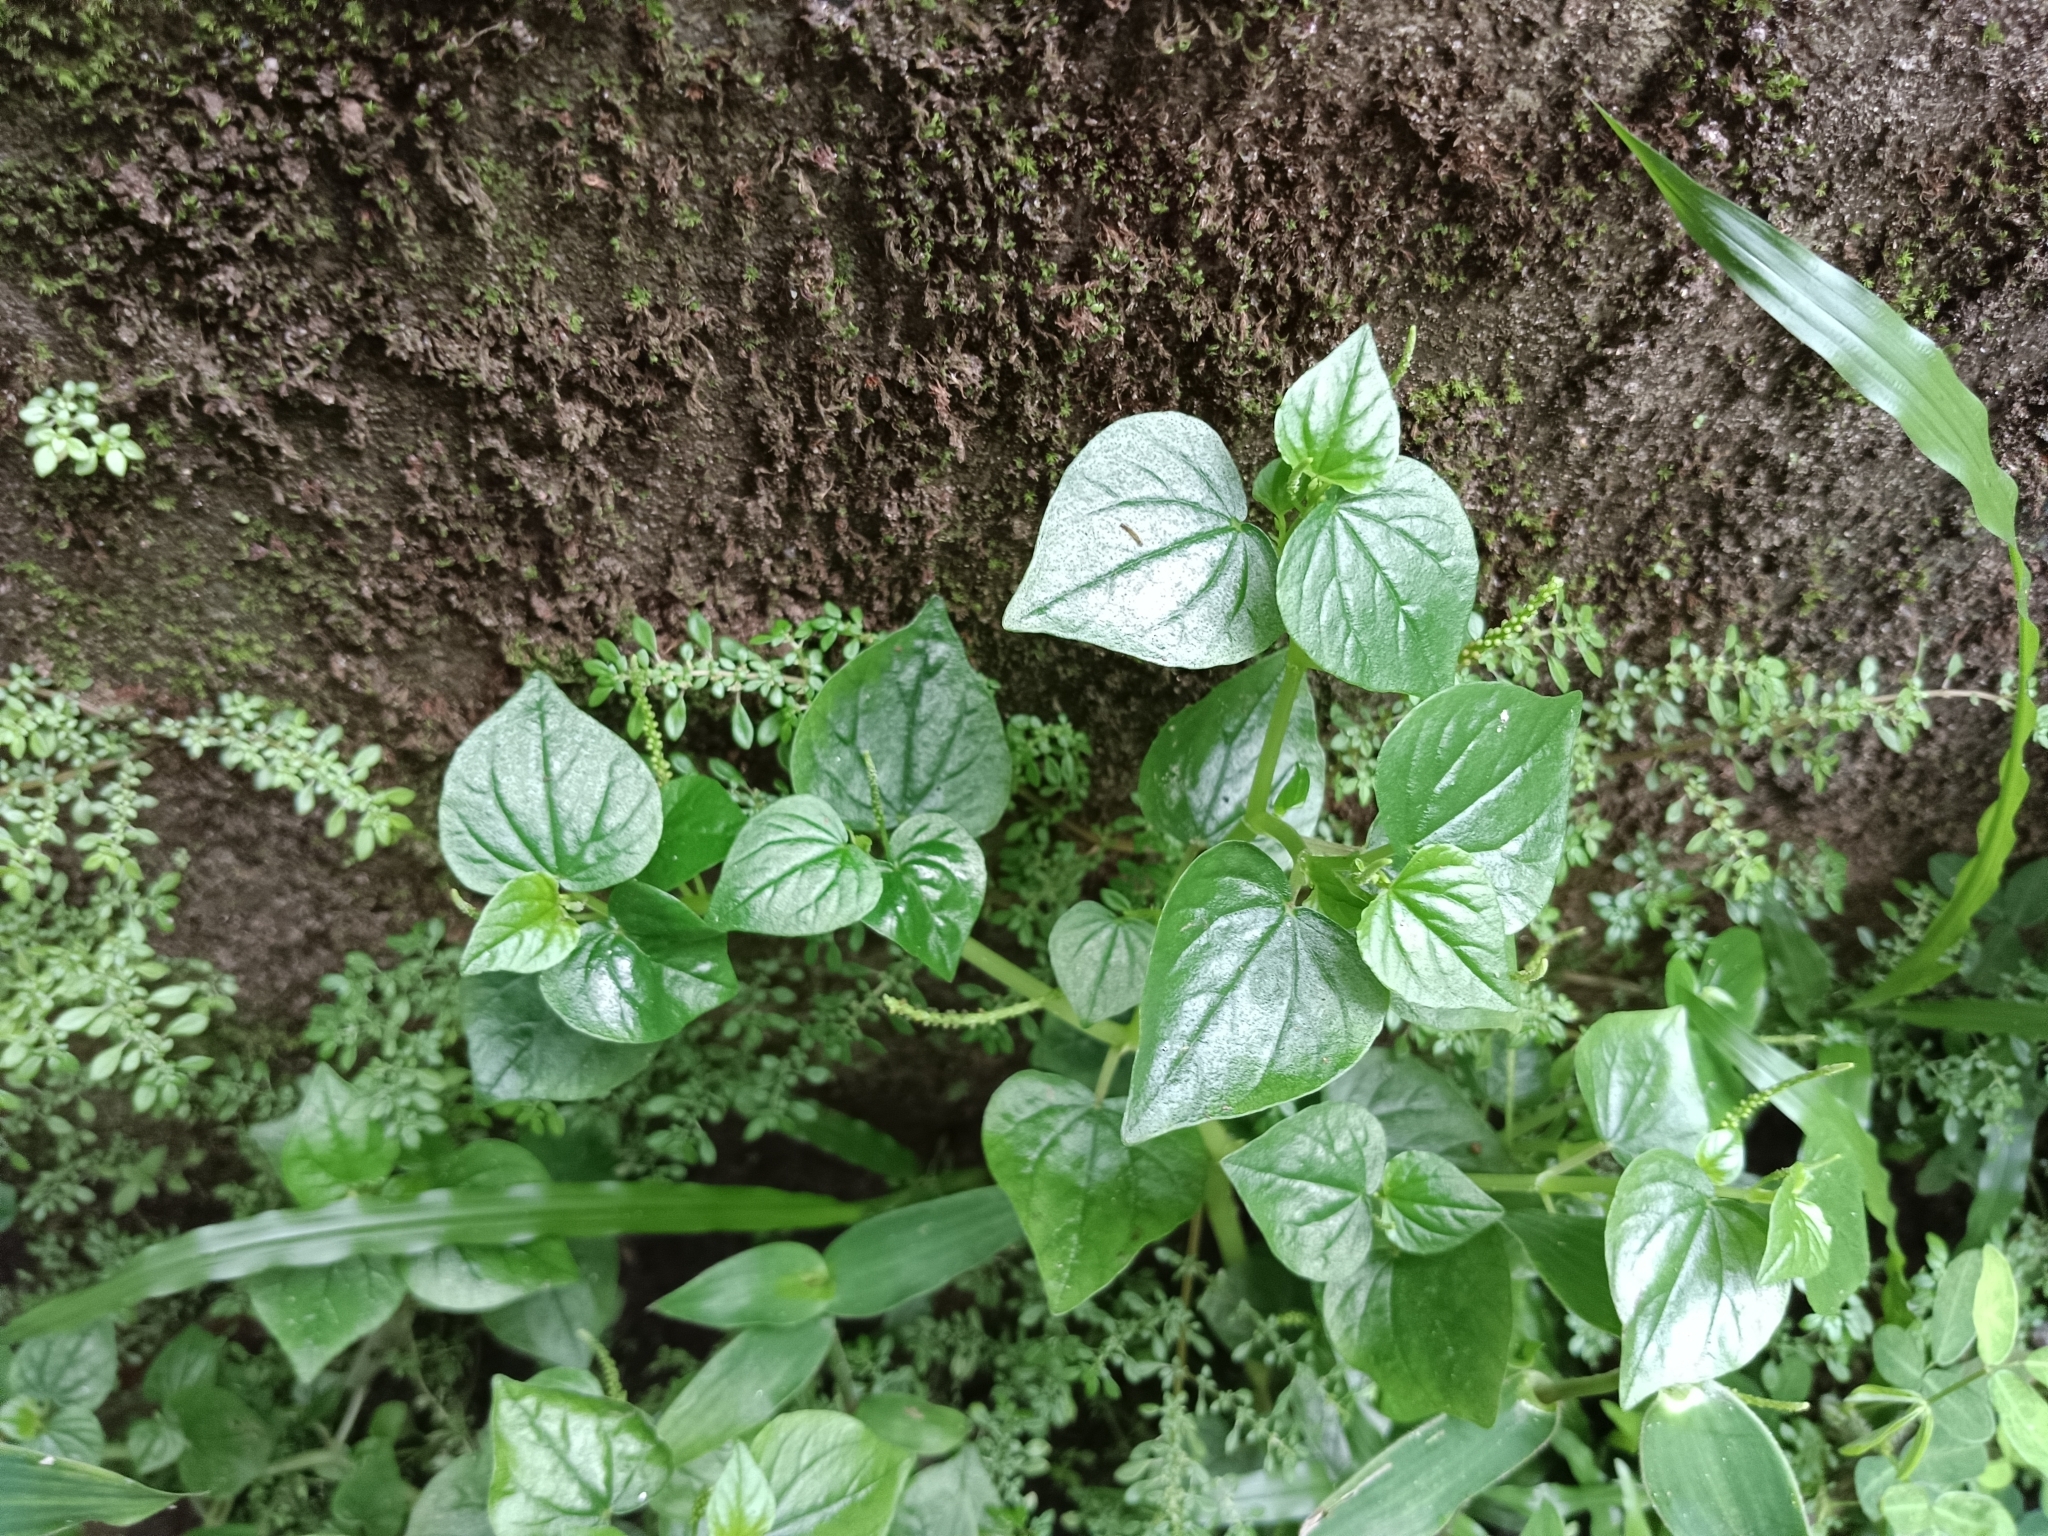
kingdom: Plantae
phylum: Tracheophyta
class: Magnoliopsida
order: Piperales
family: Piperaceae
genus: Peperomia
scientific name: Peperomia pellucida
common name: Man to man
